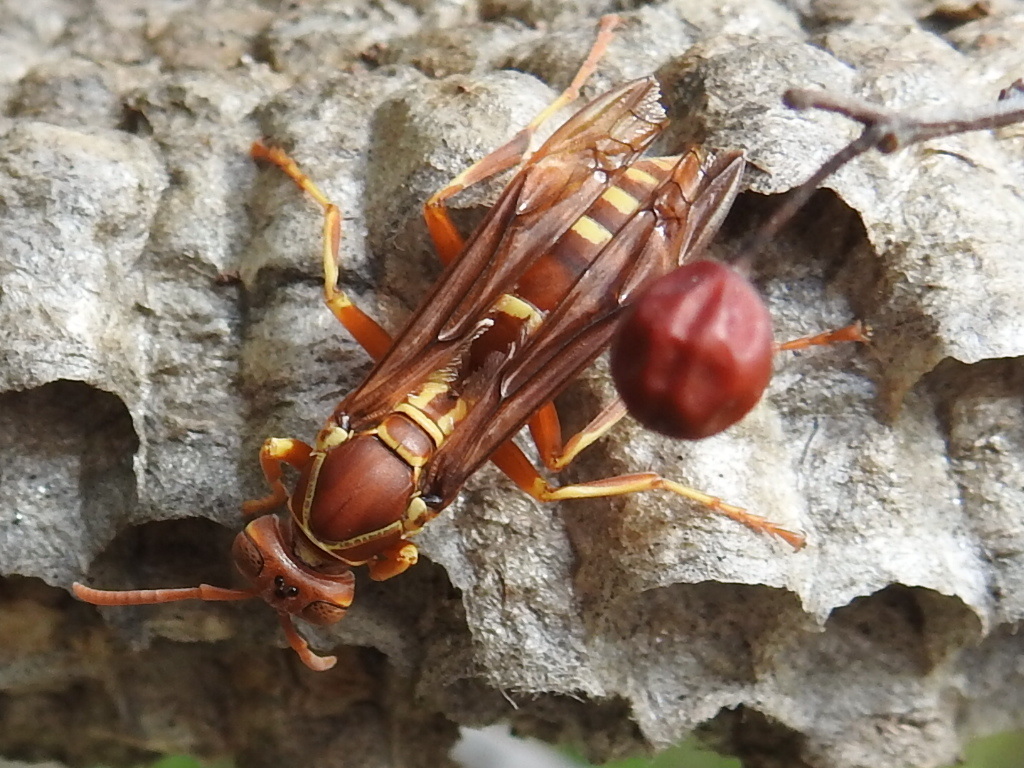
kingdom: Animalia
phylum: Arthropoda
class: Insecta
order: Hymenoptera
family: Eumenidae
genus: Polistes
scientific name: Polistes bellicosus
